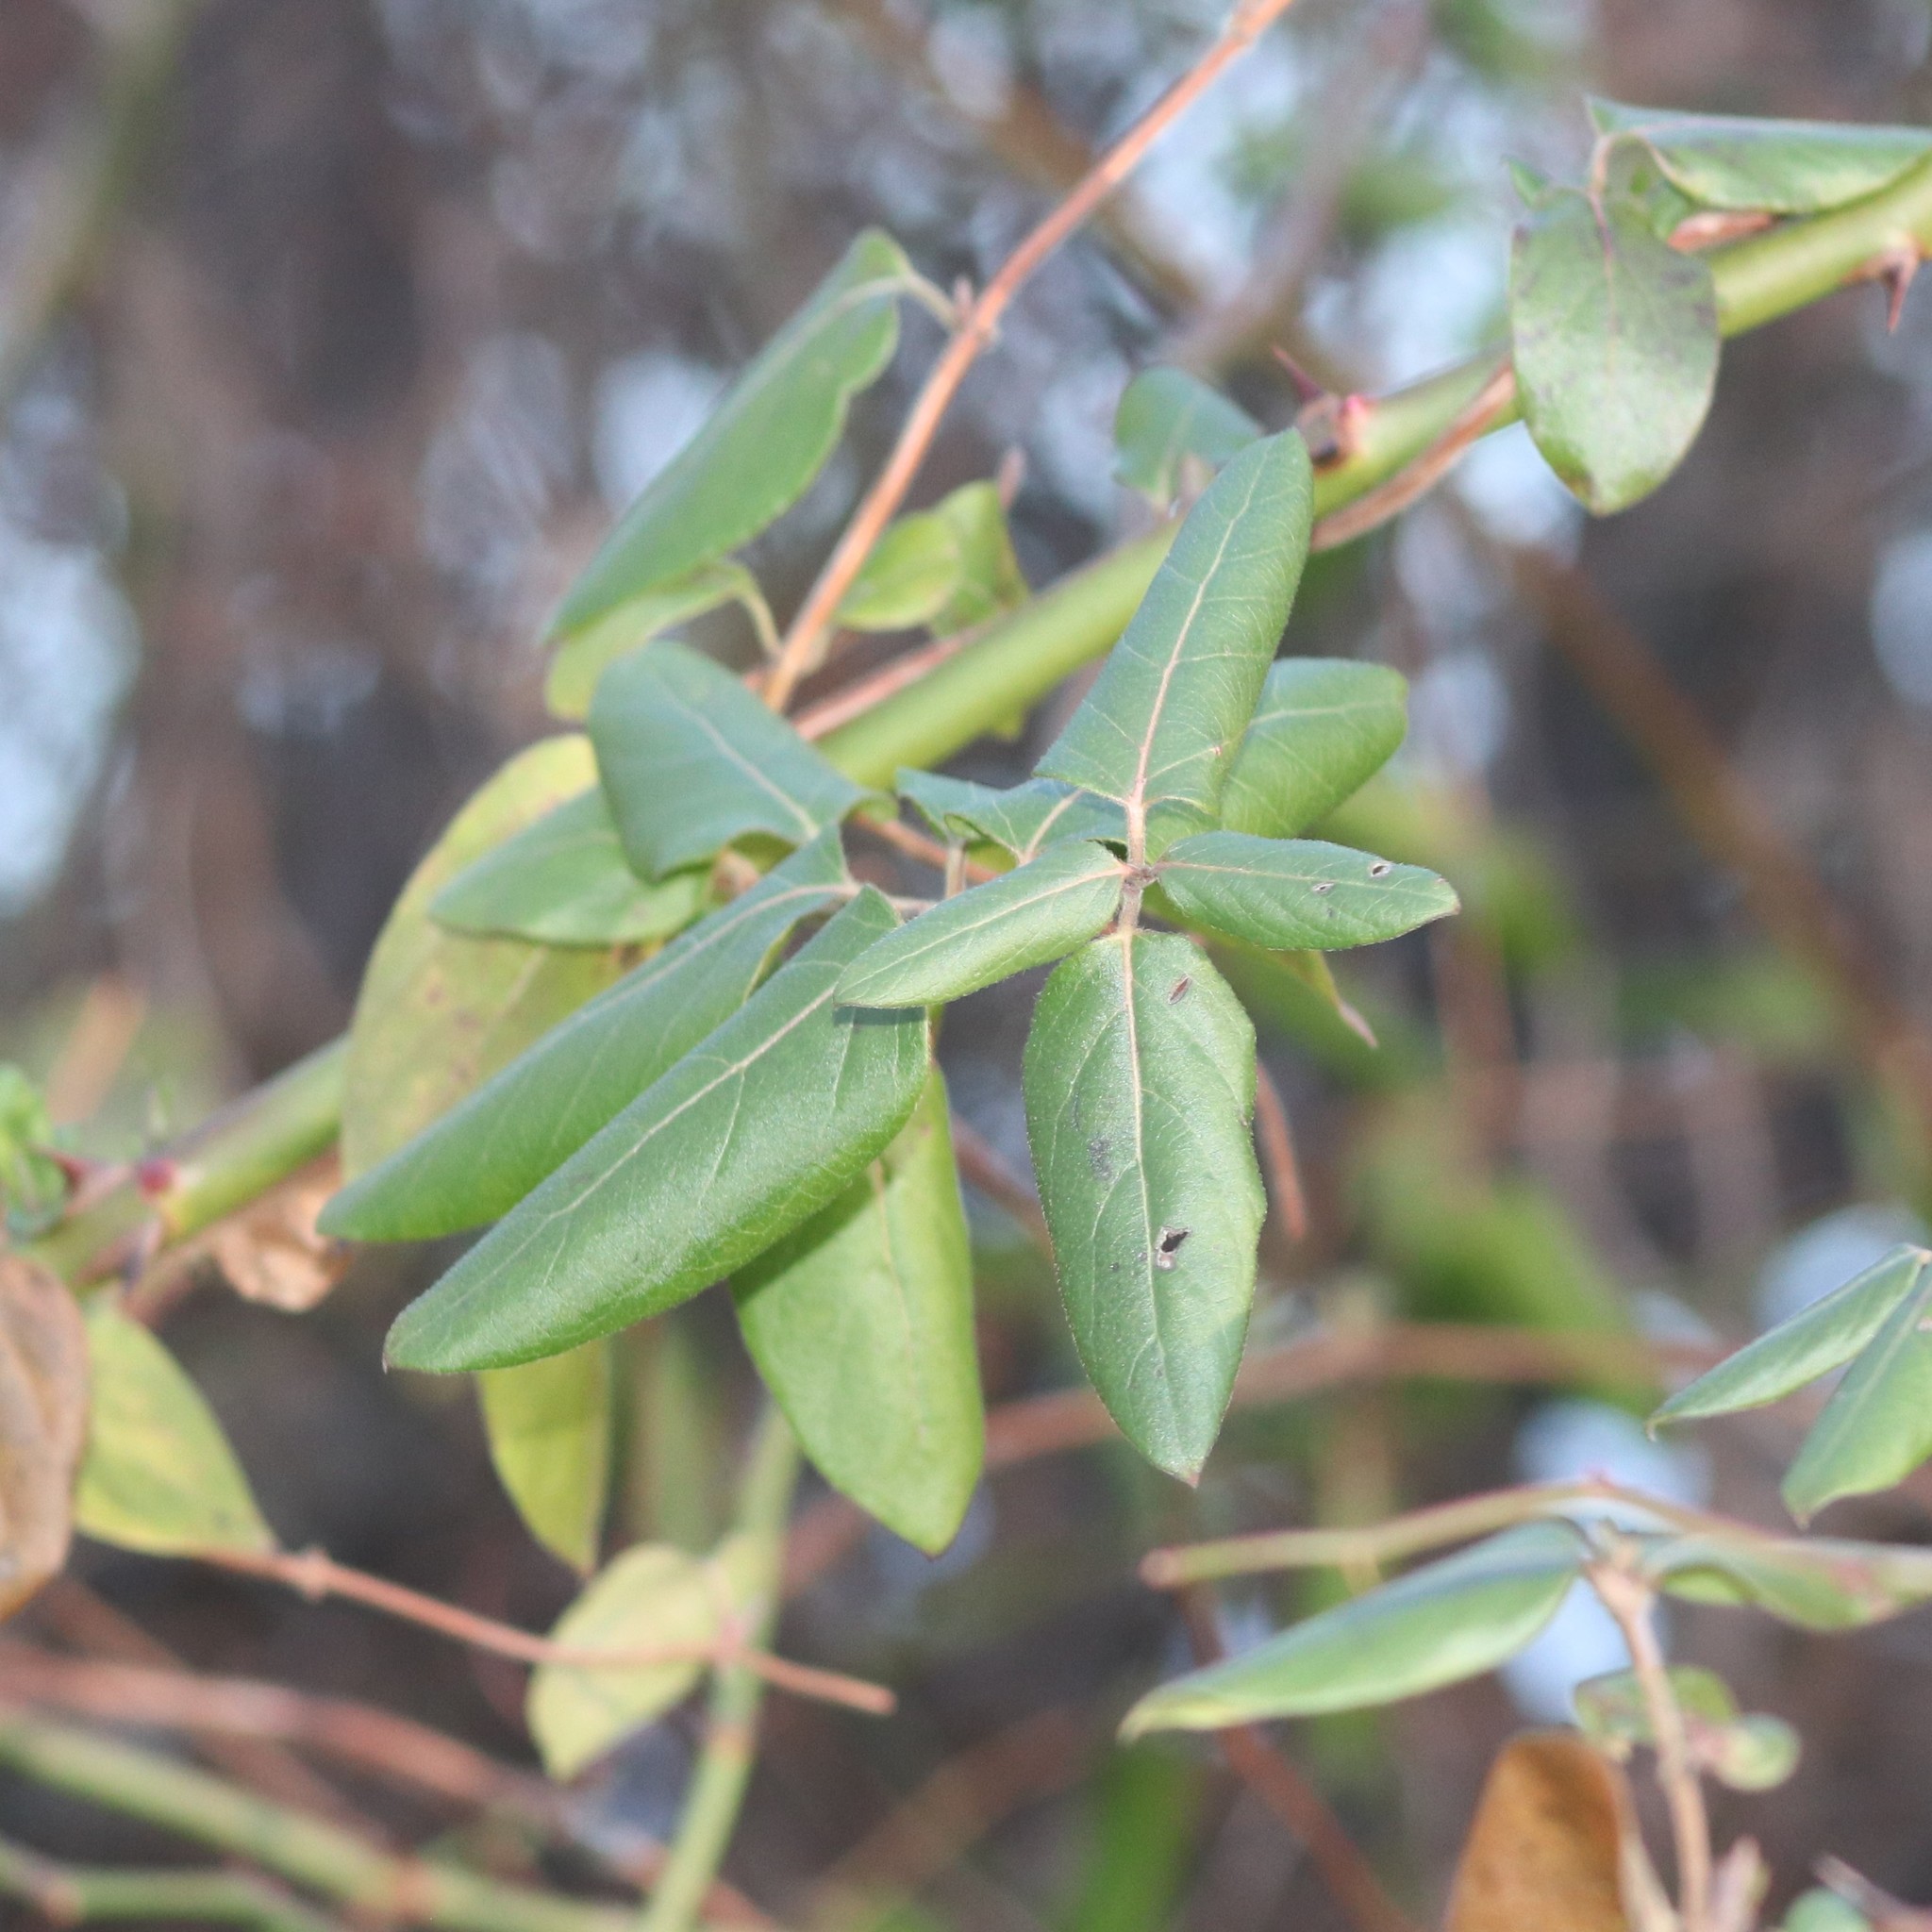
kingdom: Plantae
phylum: Tracheophyta
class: Magnoliopsida
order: Dipsacales
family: Caprifoliaceae
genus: Lonicera
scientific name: Lonicera japonica
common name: Japanese honeysuckle
